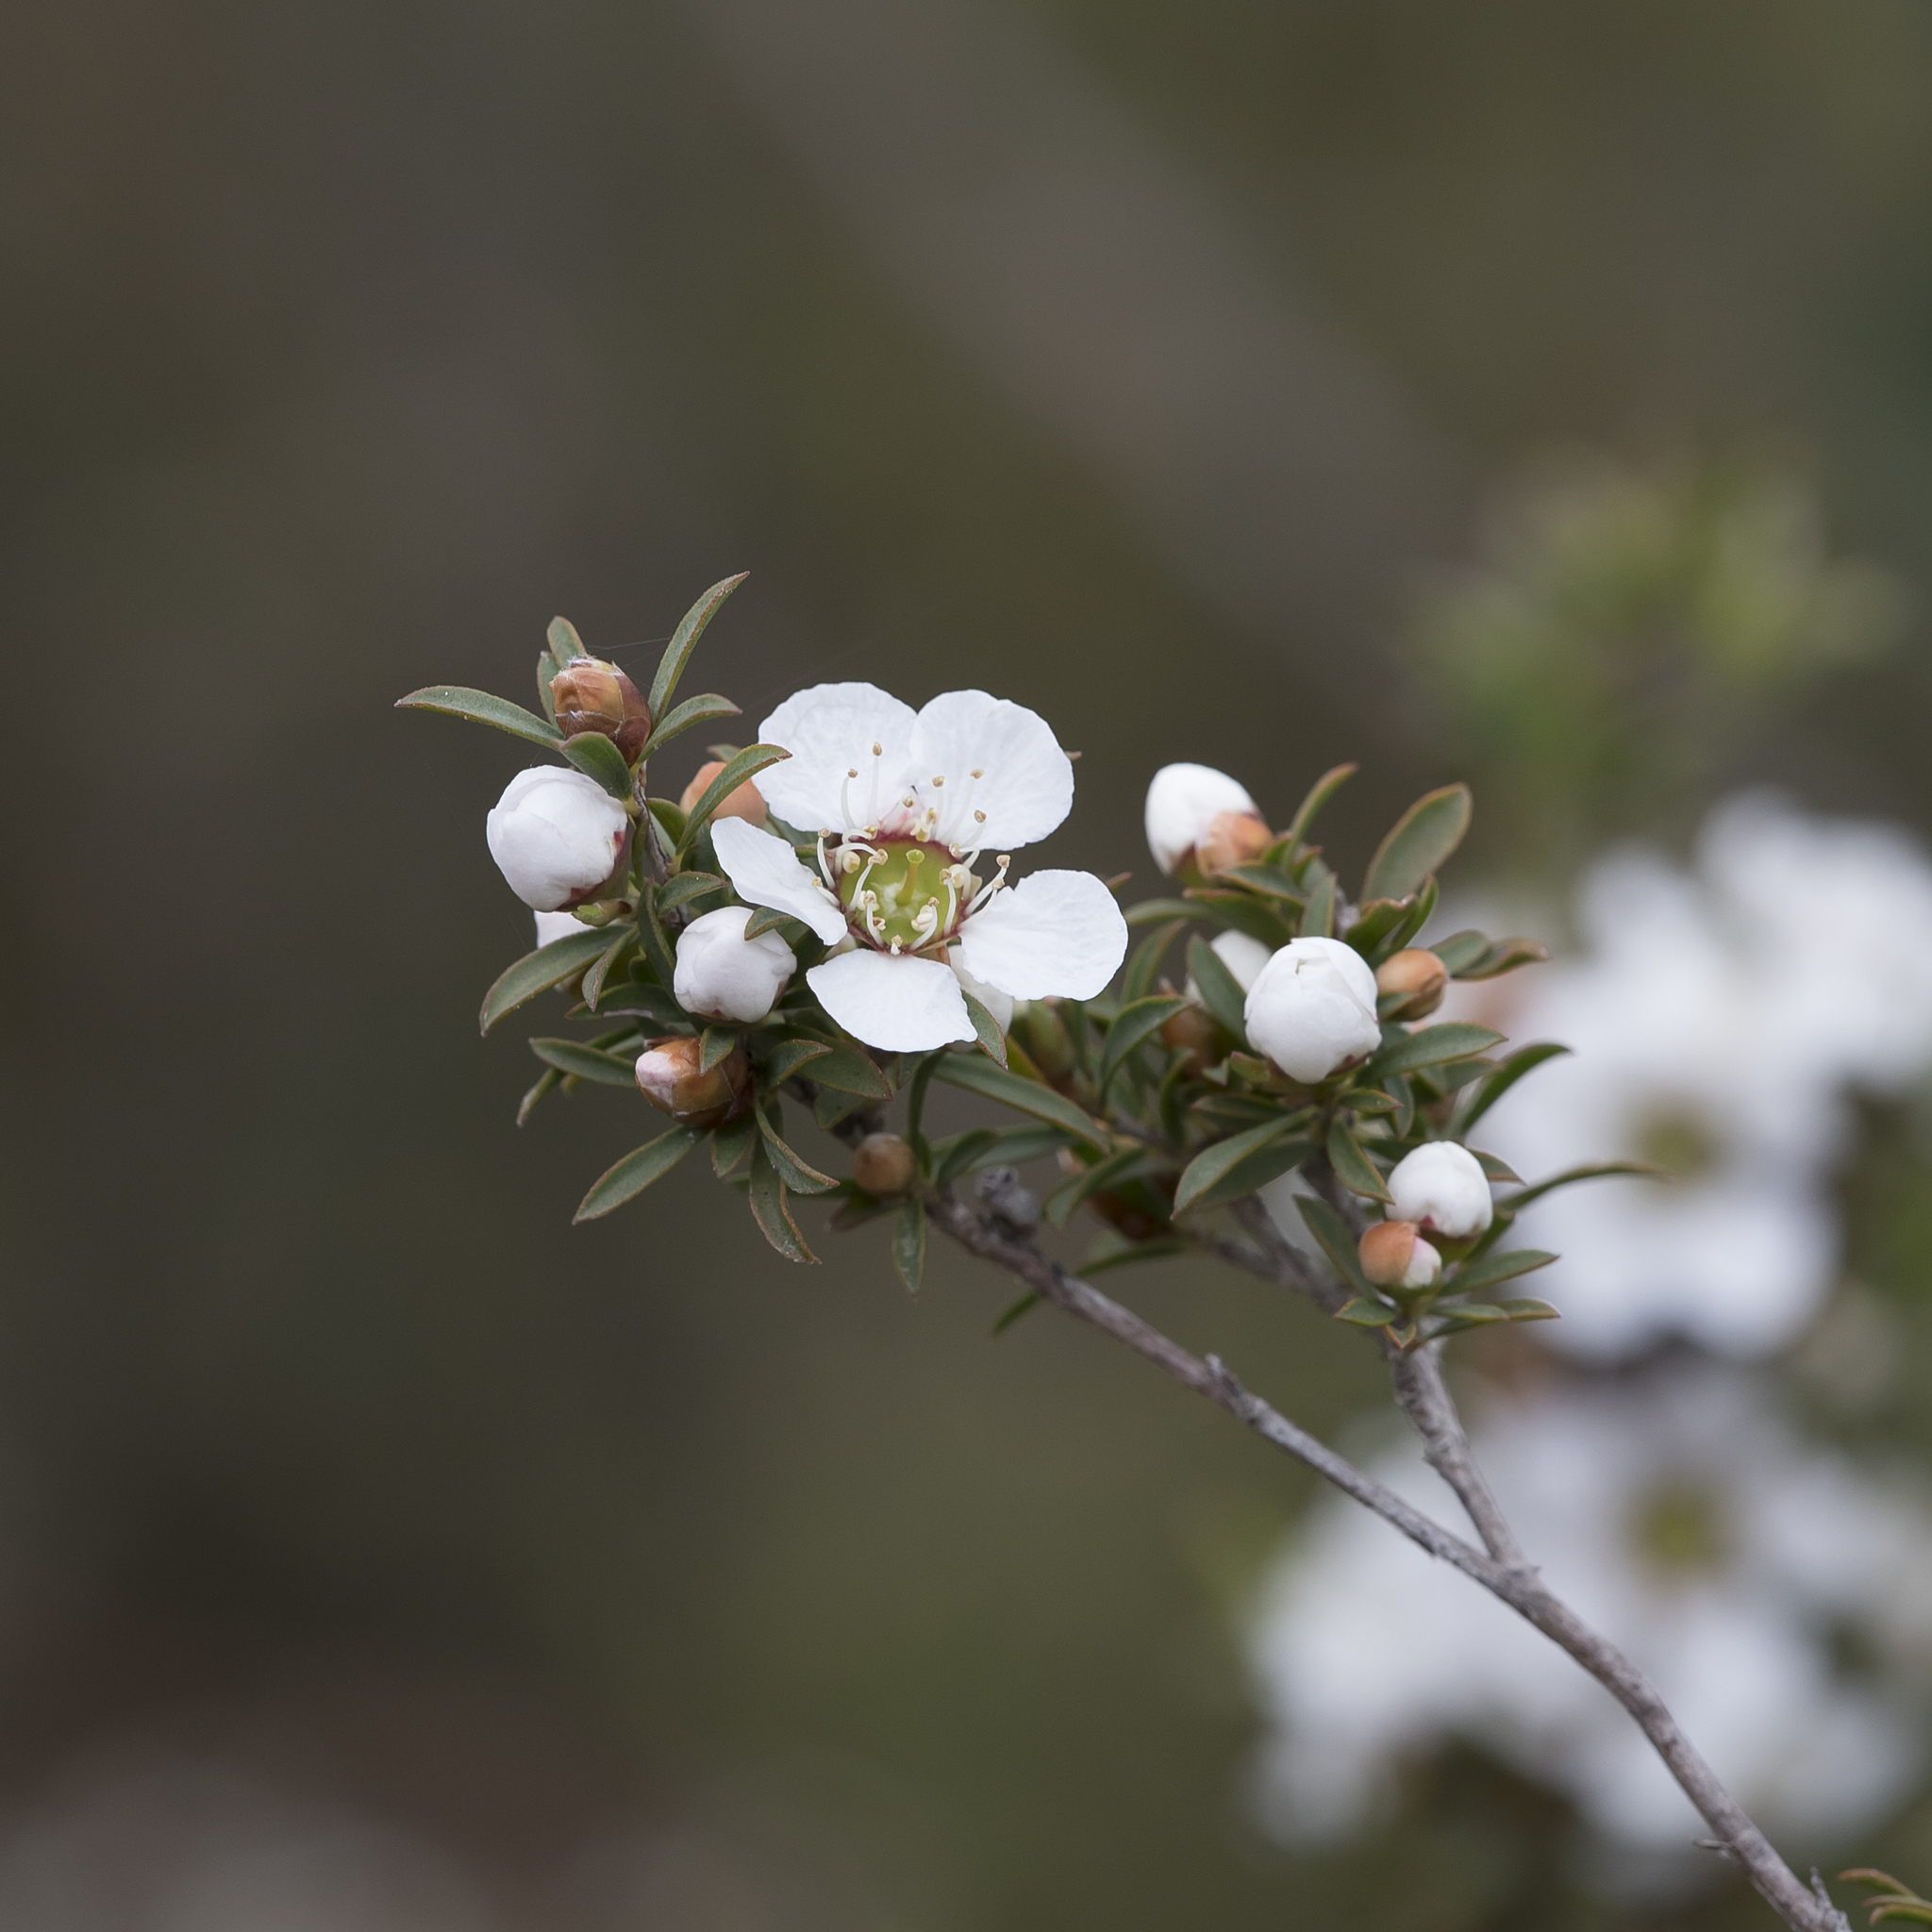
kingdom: Plantae
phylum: Tracheophyta
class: Magnoliopsida
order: Myrtales
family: Myrtaceae
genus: Leptospermum
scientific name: Leptospermum myrsinoides
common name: Heath teatree
